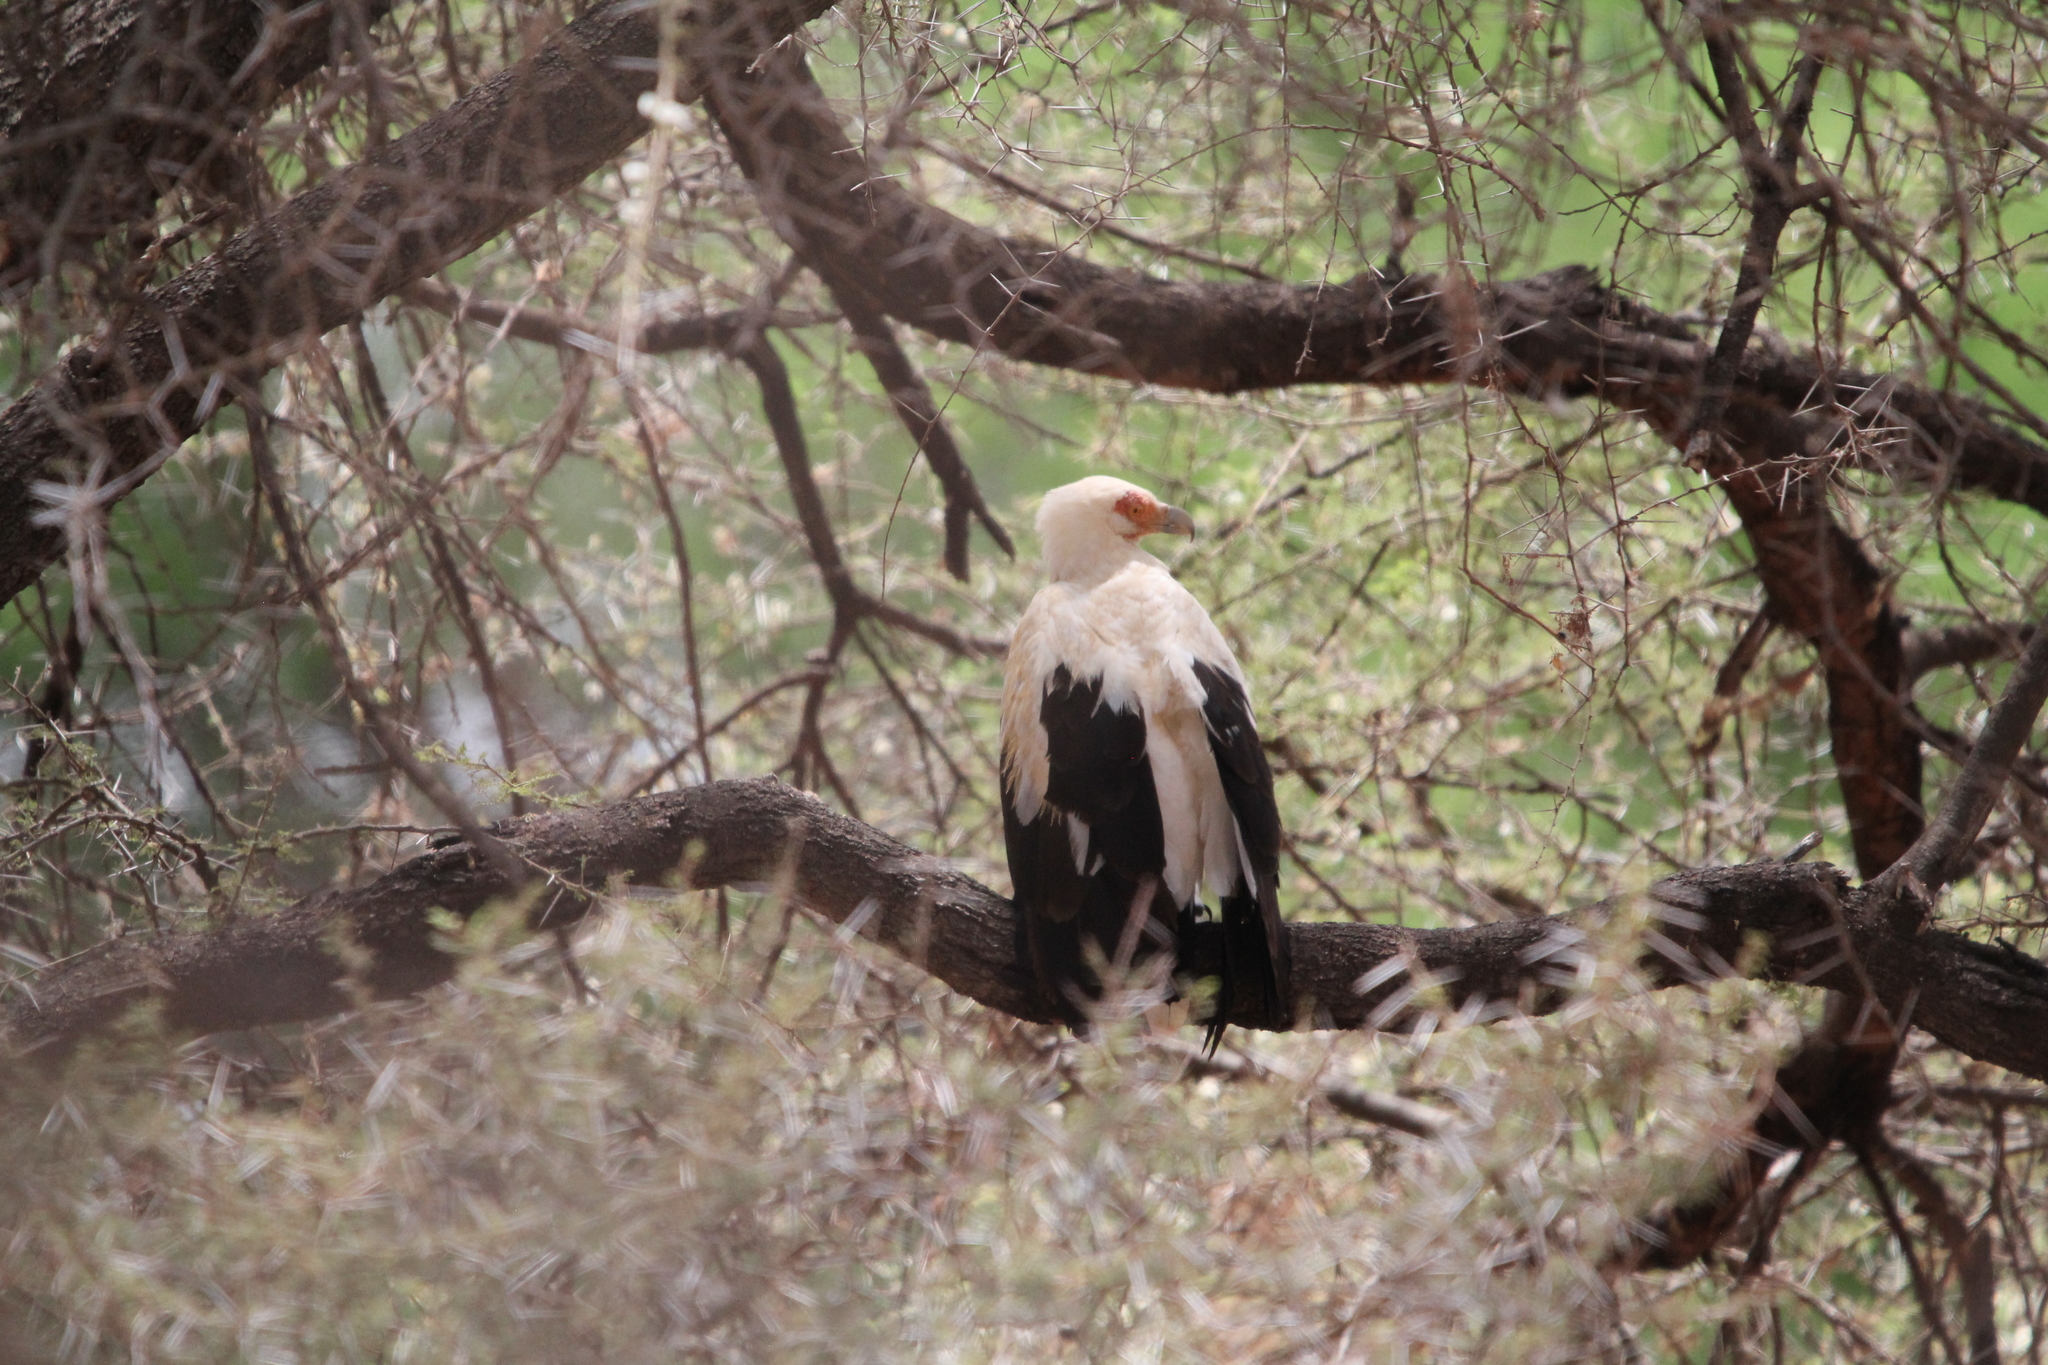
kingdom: Animalia
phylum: Chordata
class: Aves
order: Accipitriformes
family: Accipitridae
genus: Gypohierax
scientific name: Gypohierax angolensis
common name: Palm-nut vulture
